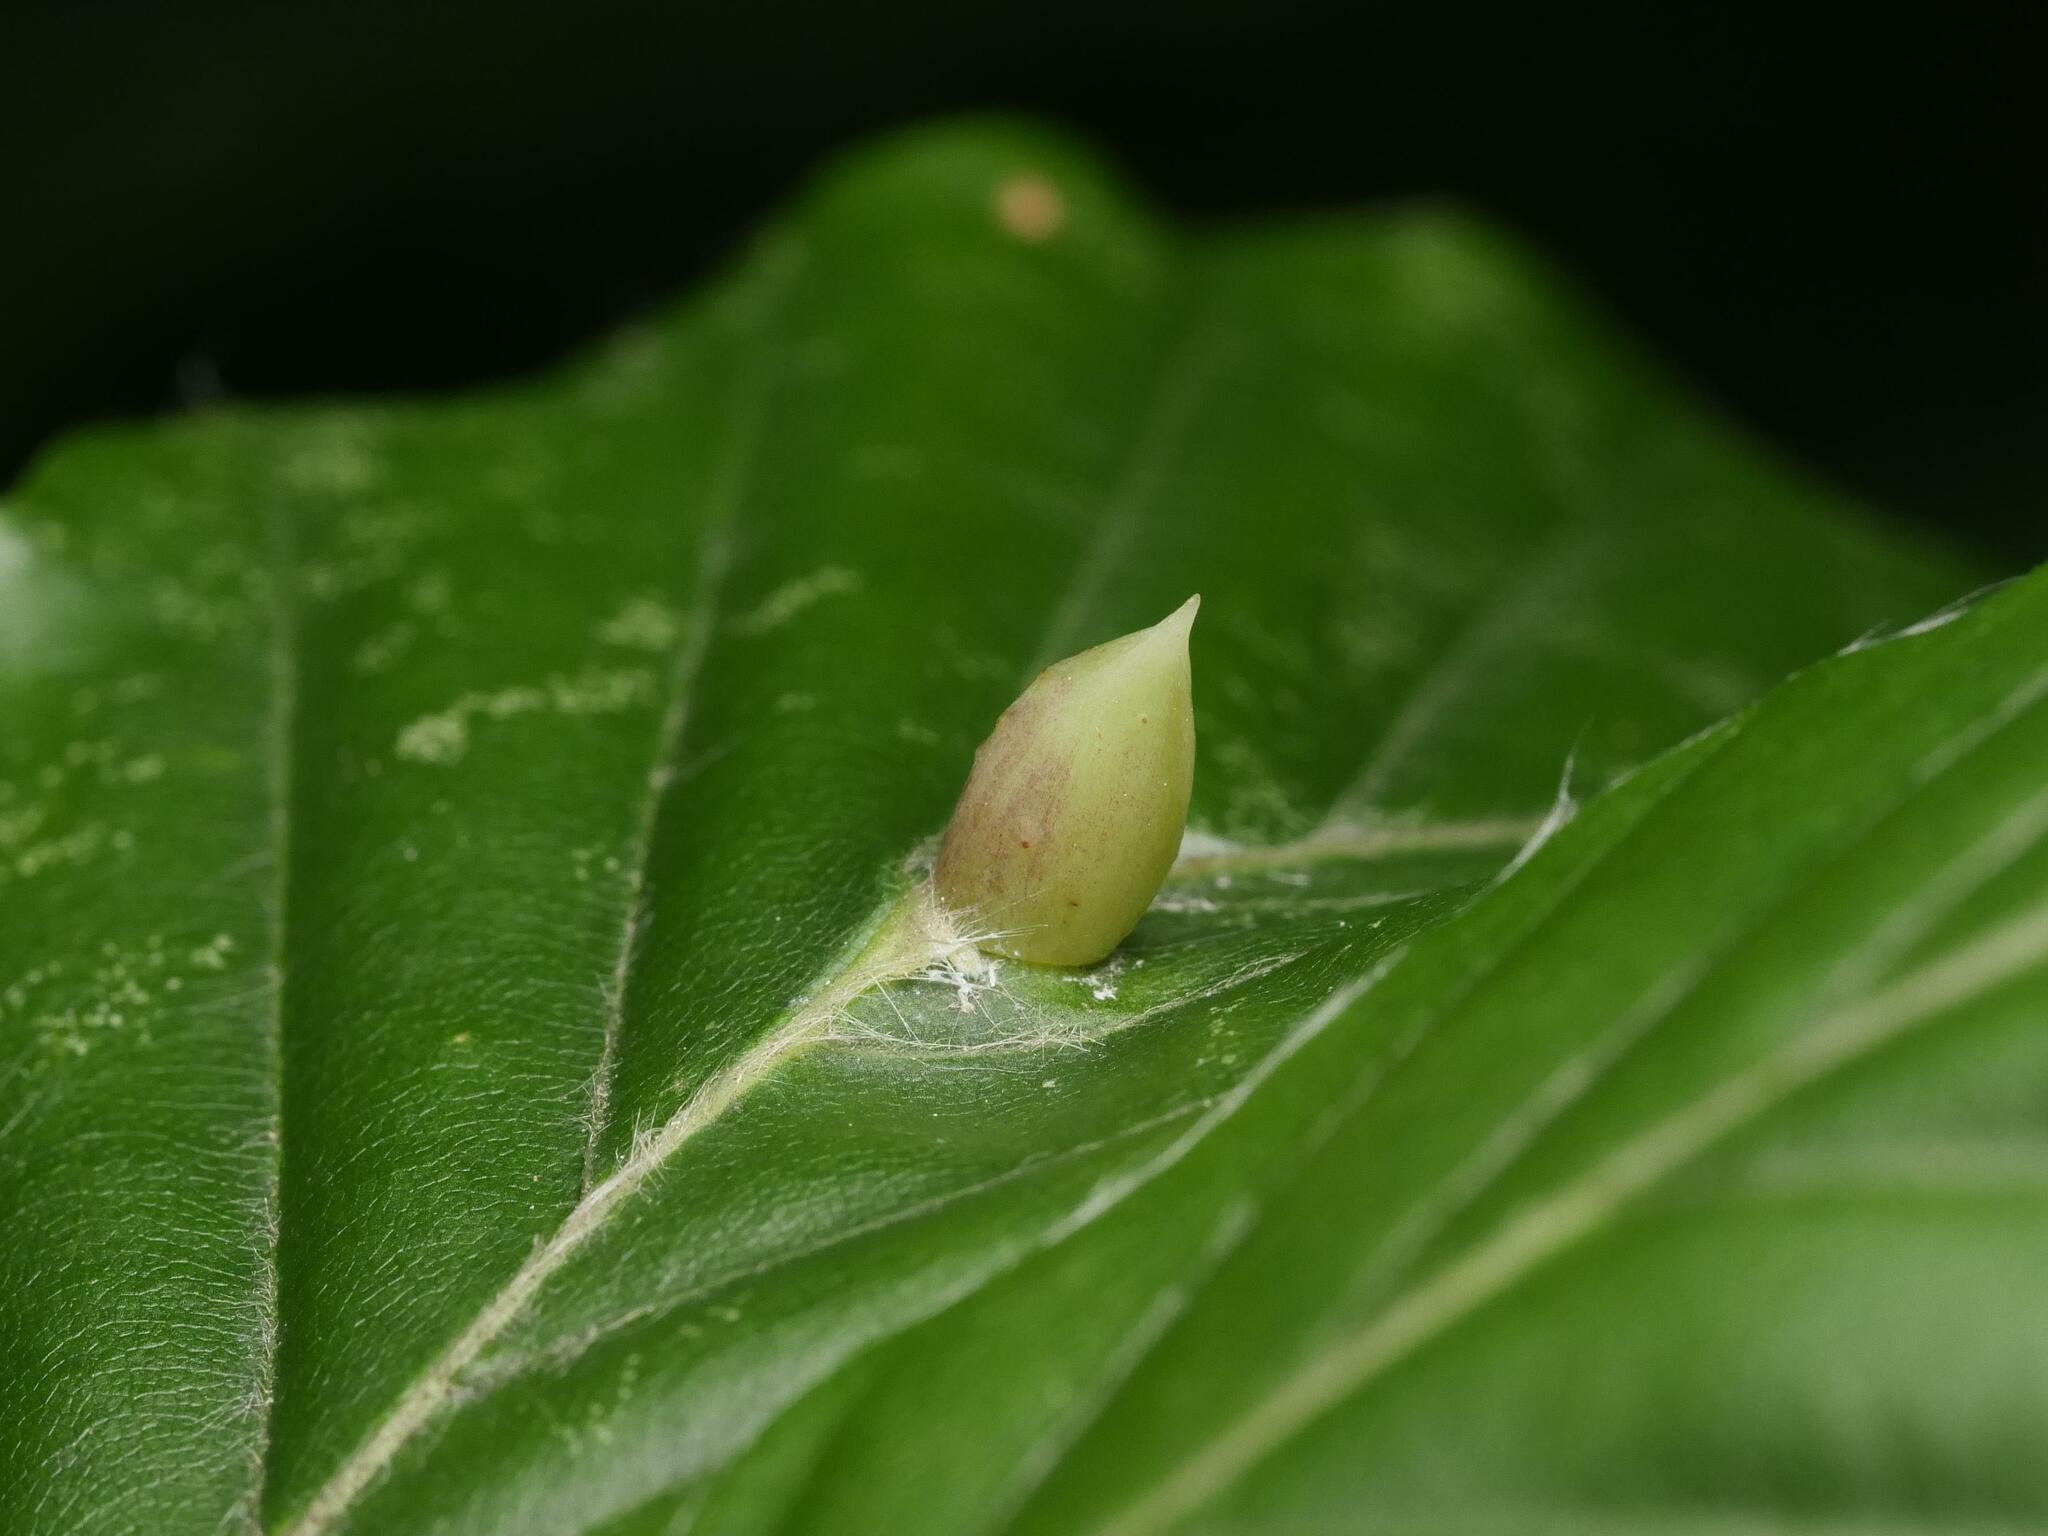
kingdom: Animalia
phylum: Arthropoda
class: Insecta
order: Diptera
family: Cecidomyiidae
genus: Mikiola
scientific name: Mikiola fagi
